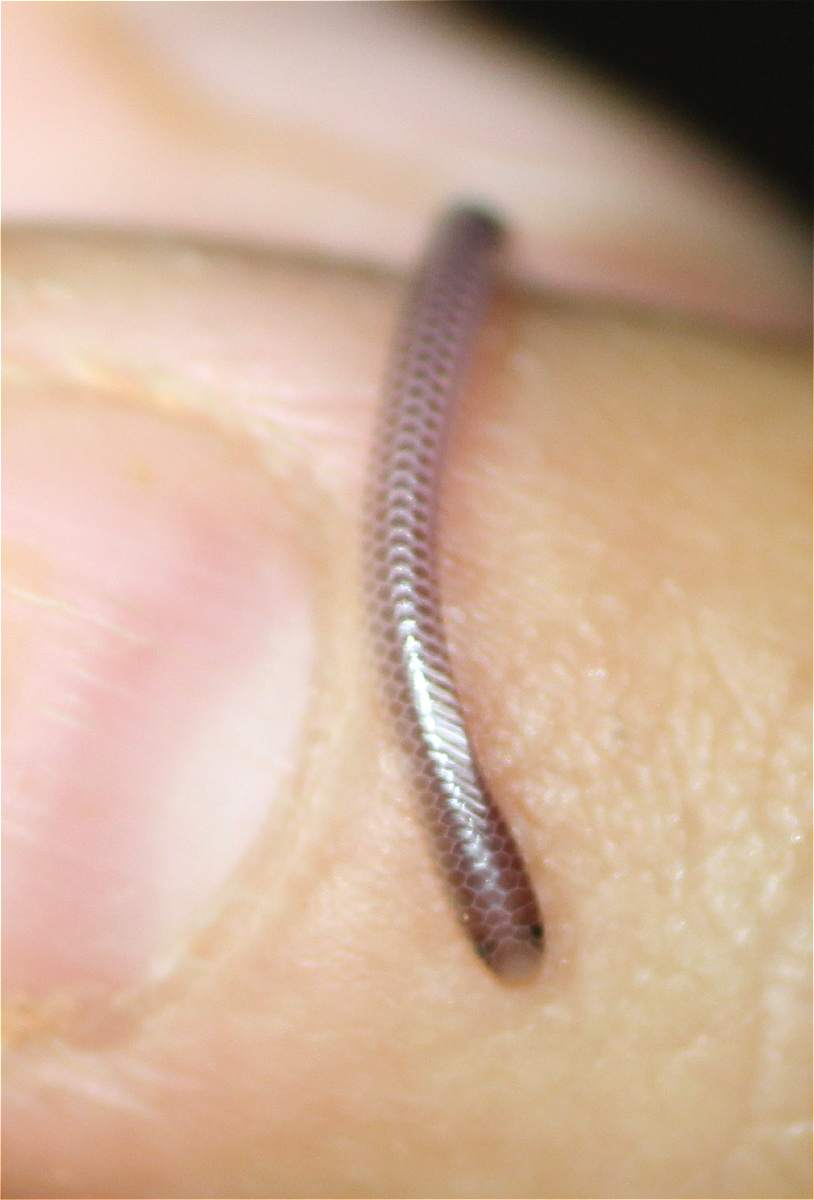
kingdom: Animalia
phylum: Chordata
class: Squamata
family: Leptotyphlopidae
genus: Namibiana
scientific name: Namibiana occidentalis
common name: Western thread snake
